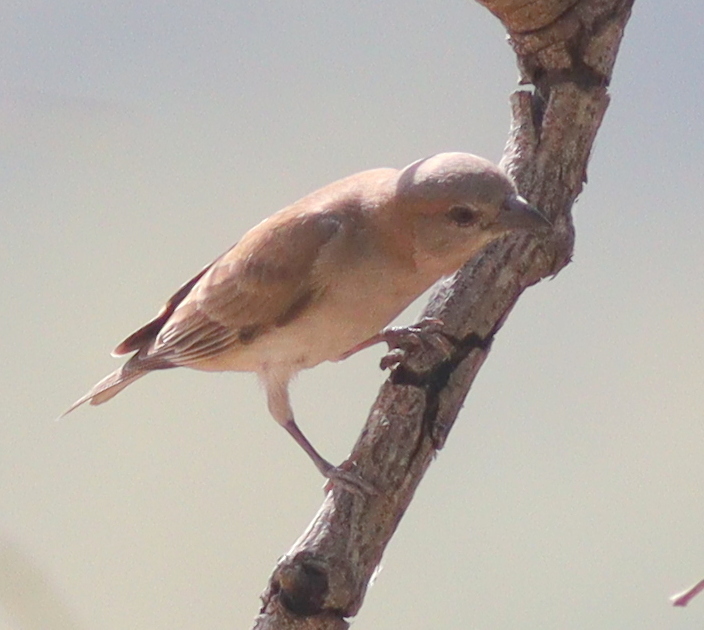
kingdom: Animalia
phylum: Chordata
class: Aves
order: Passeriformes
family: Passeridae
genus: Gymnoris
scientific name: Gymnoris dentata
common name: Bush petronia
